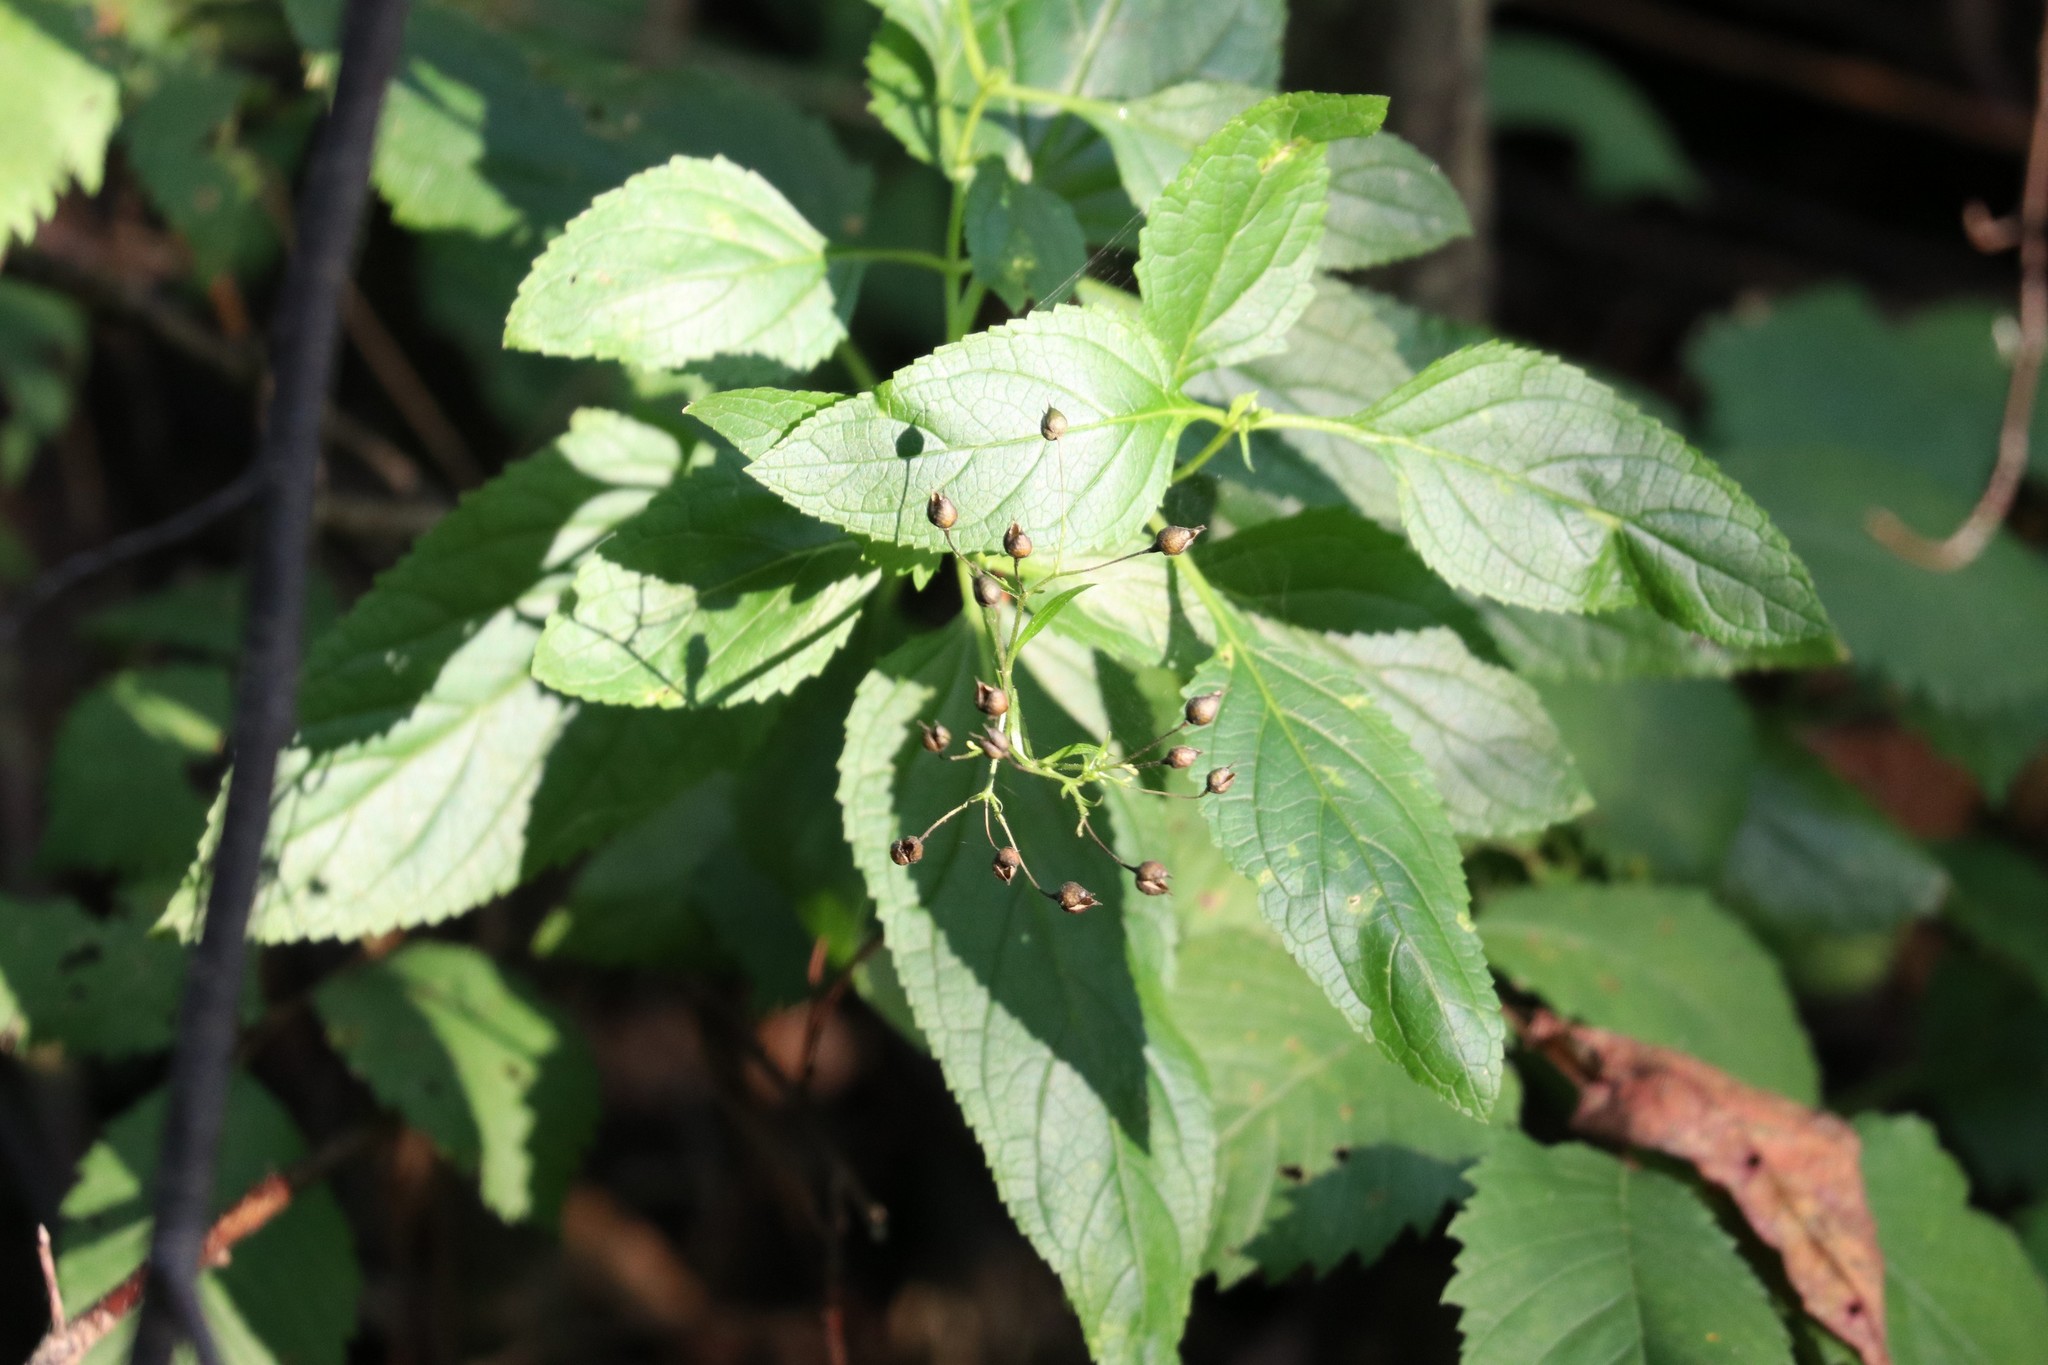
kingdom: Plantae
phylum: Tracheophyta
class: Magnoliopsida
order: Lamiales
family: Scrophulariaceae
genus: Scrophularia
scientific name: Scrophularia nodosa
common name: Common figwort
